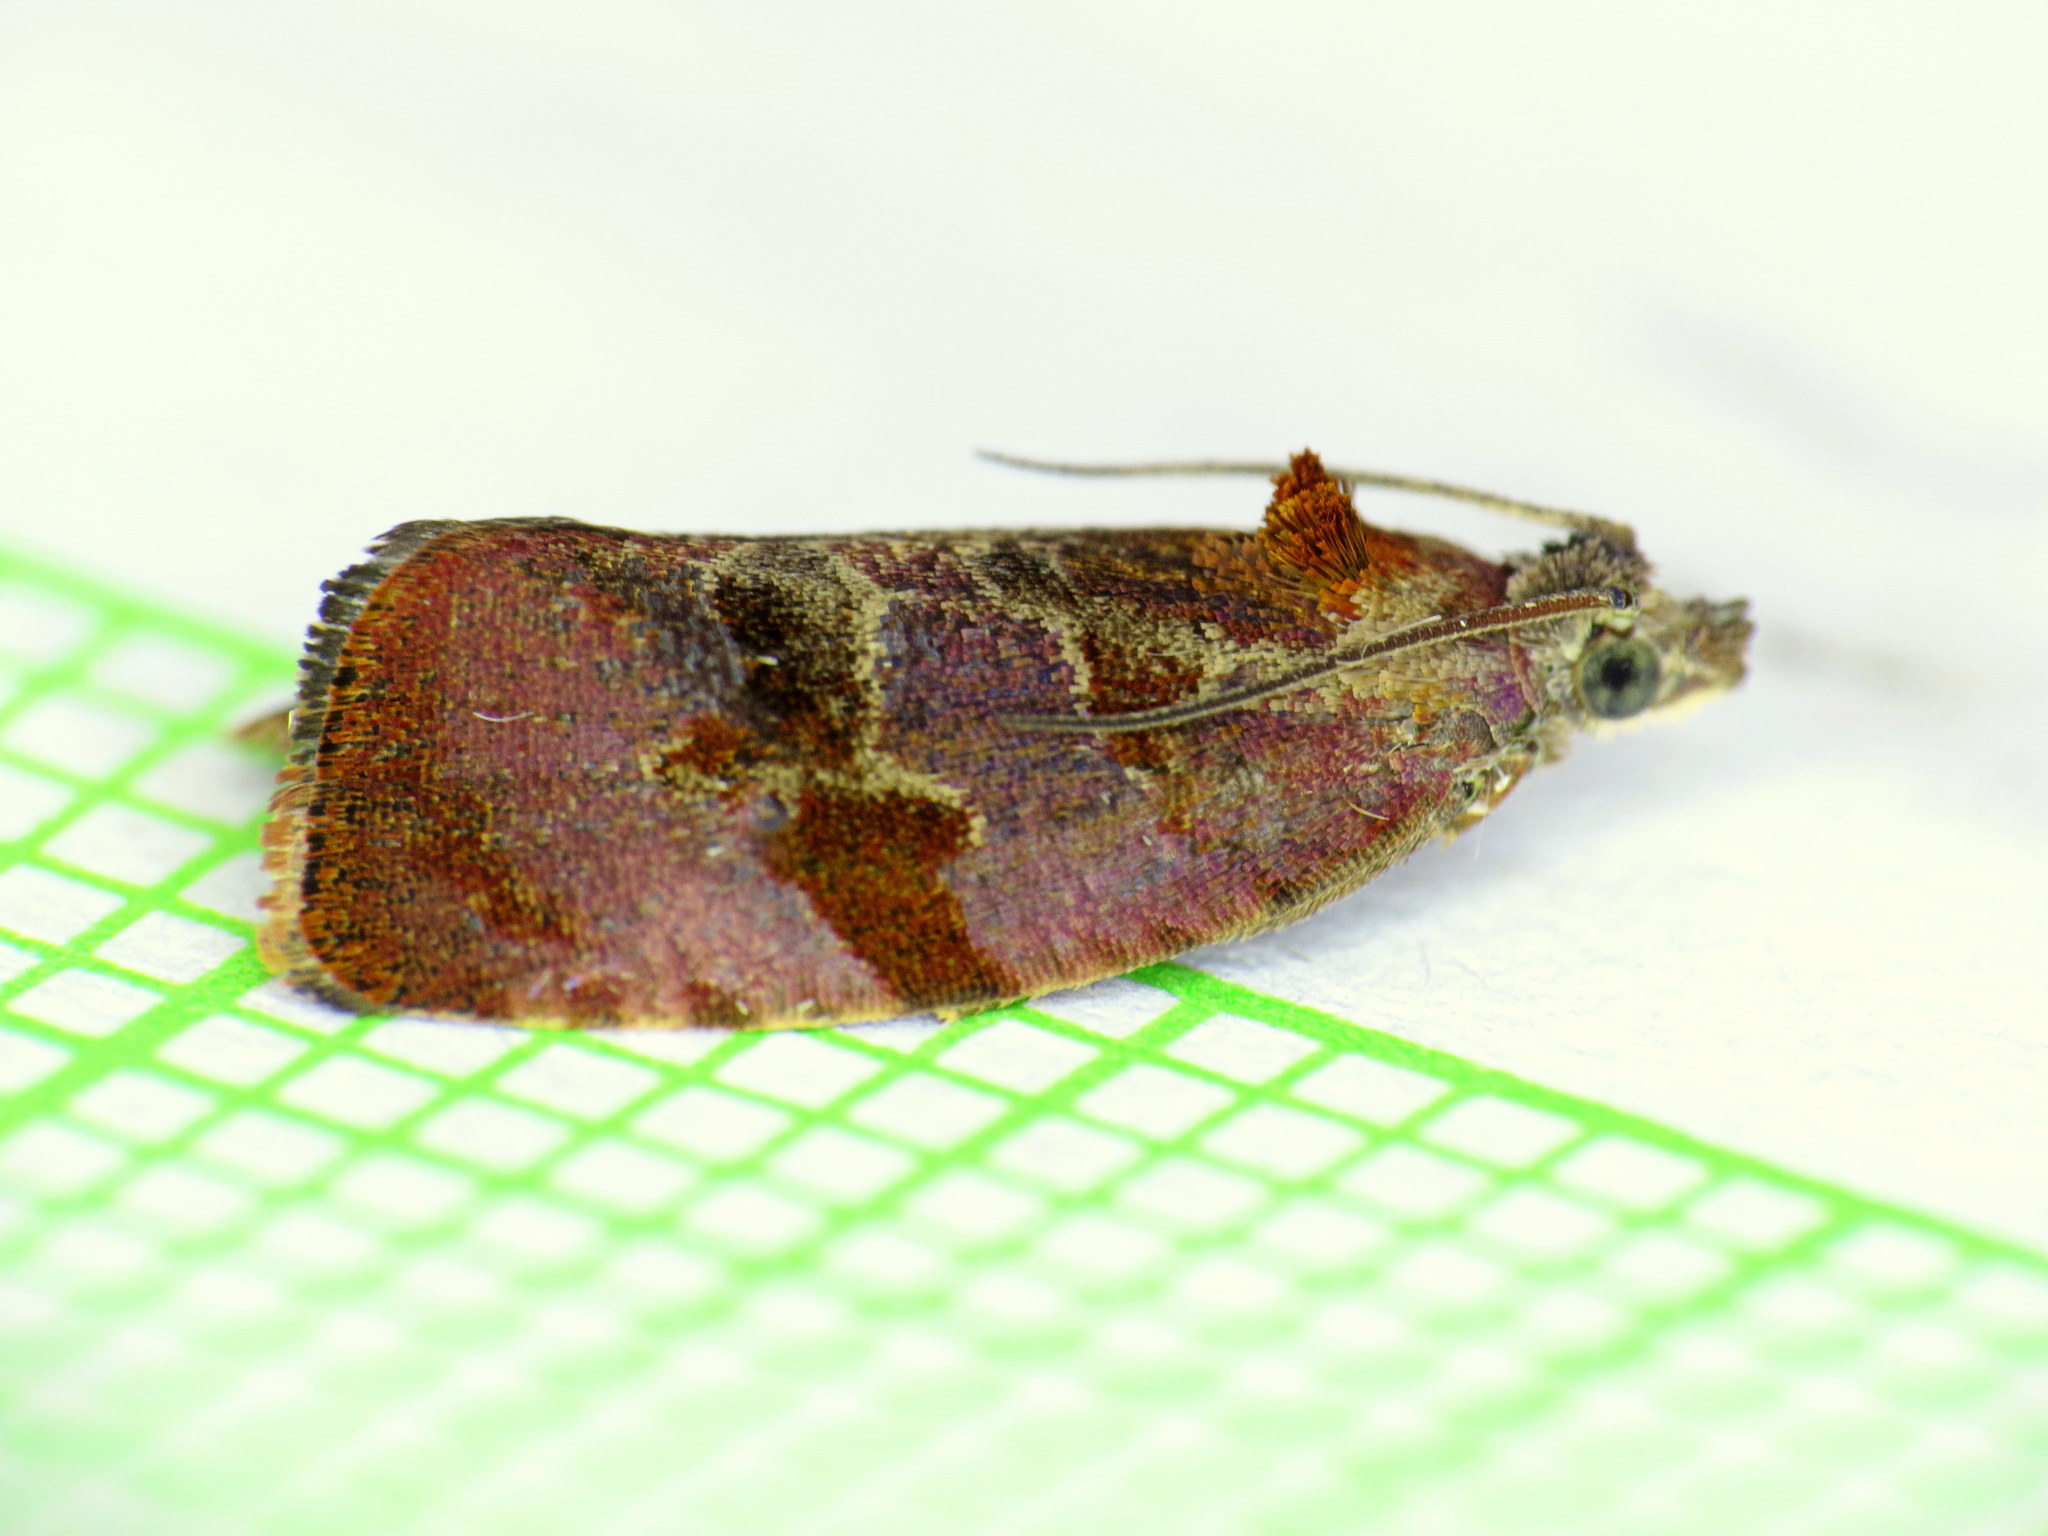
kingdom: Animalia
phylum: Arthropoda
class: Insecta
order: Lepidoptera
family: Tortricidae
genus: Evora
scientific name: Evora hemidesma
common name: Spirea leaftier moth
